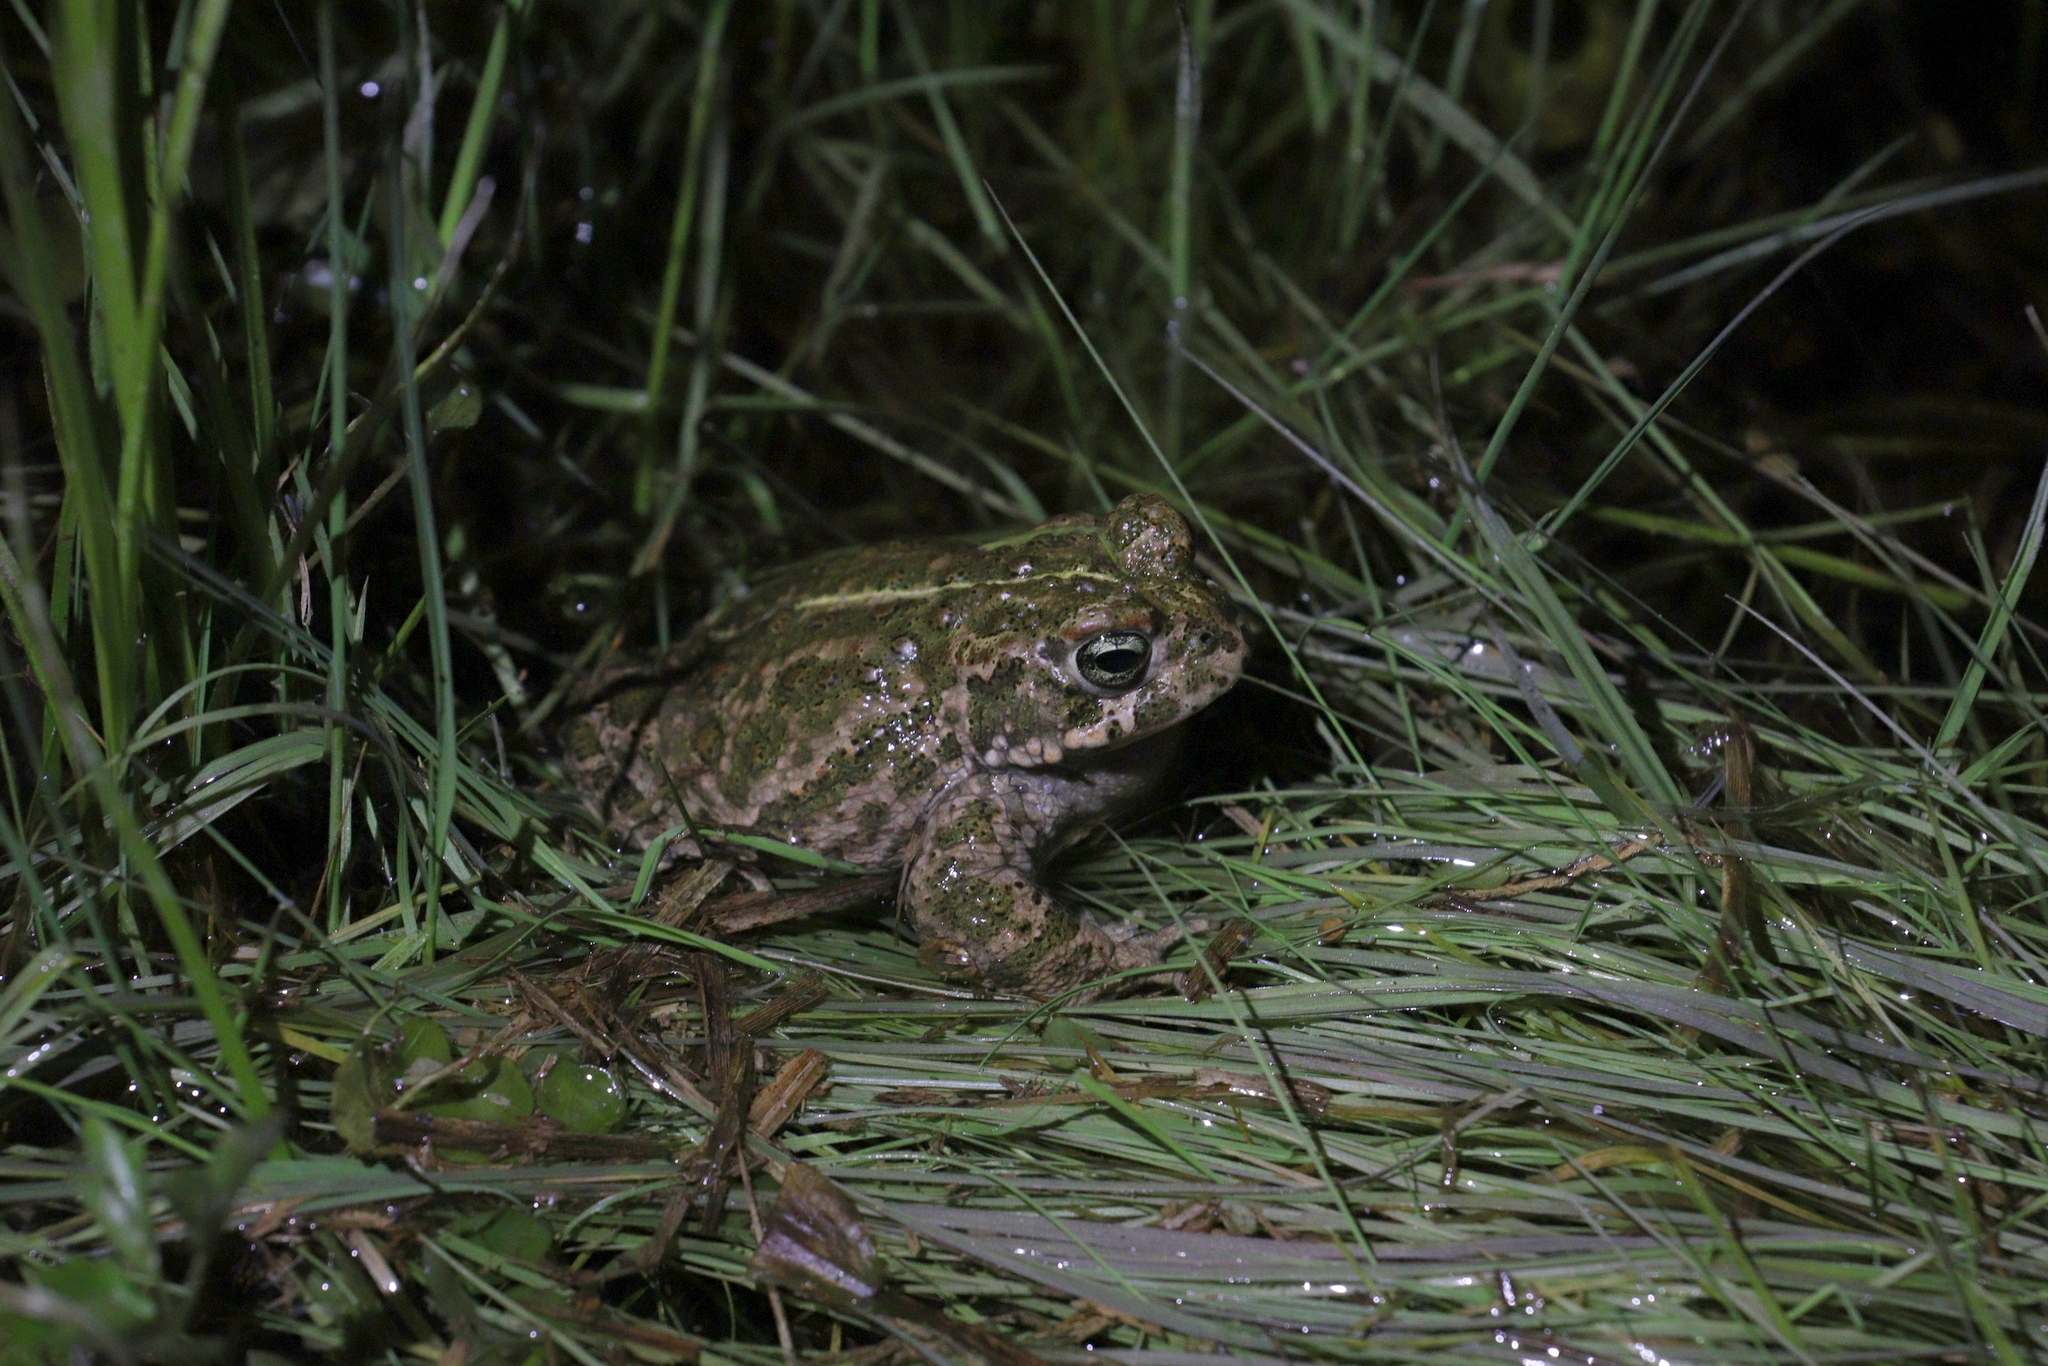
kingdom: Animalia
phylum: Chordata
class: Amphibia
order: Anura
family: Bufonidae
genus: Epidalea
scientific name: Epidalea calamita
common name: Natterjack toad
